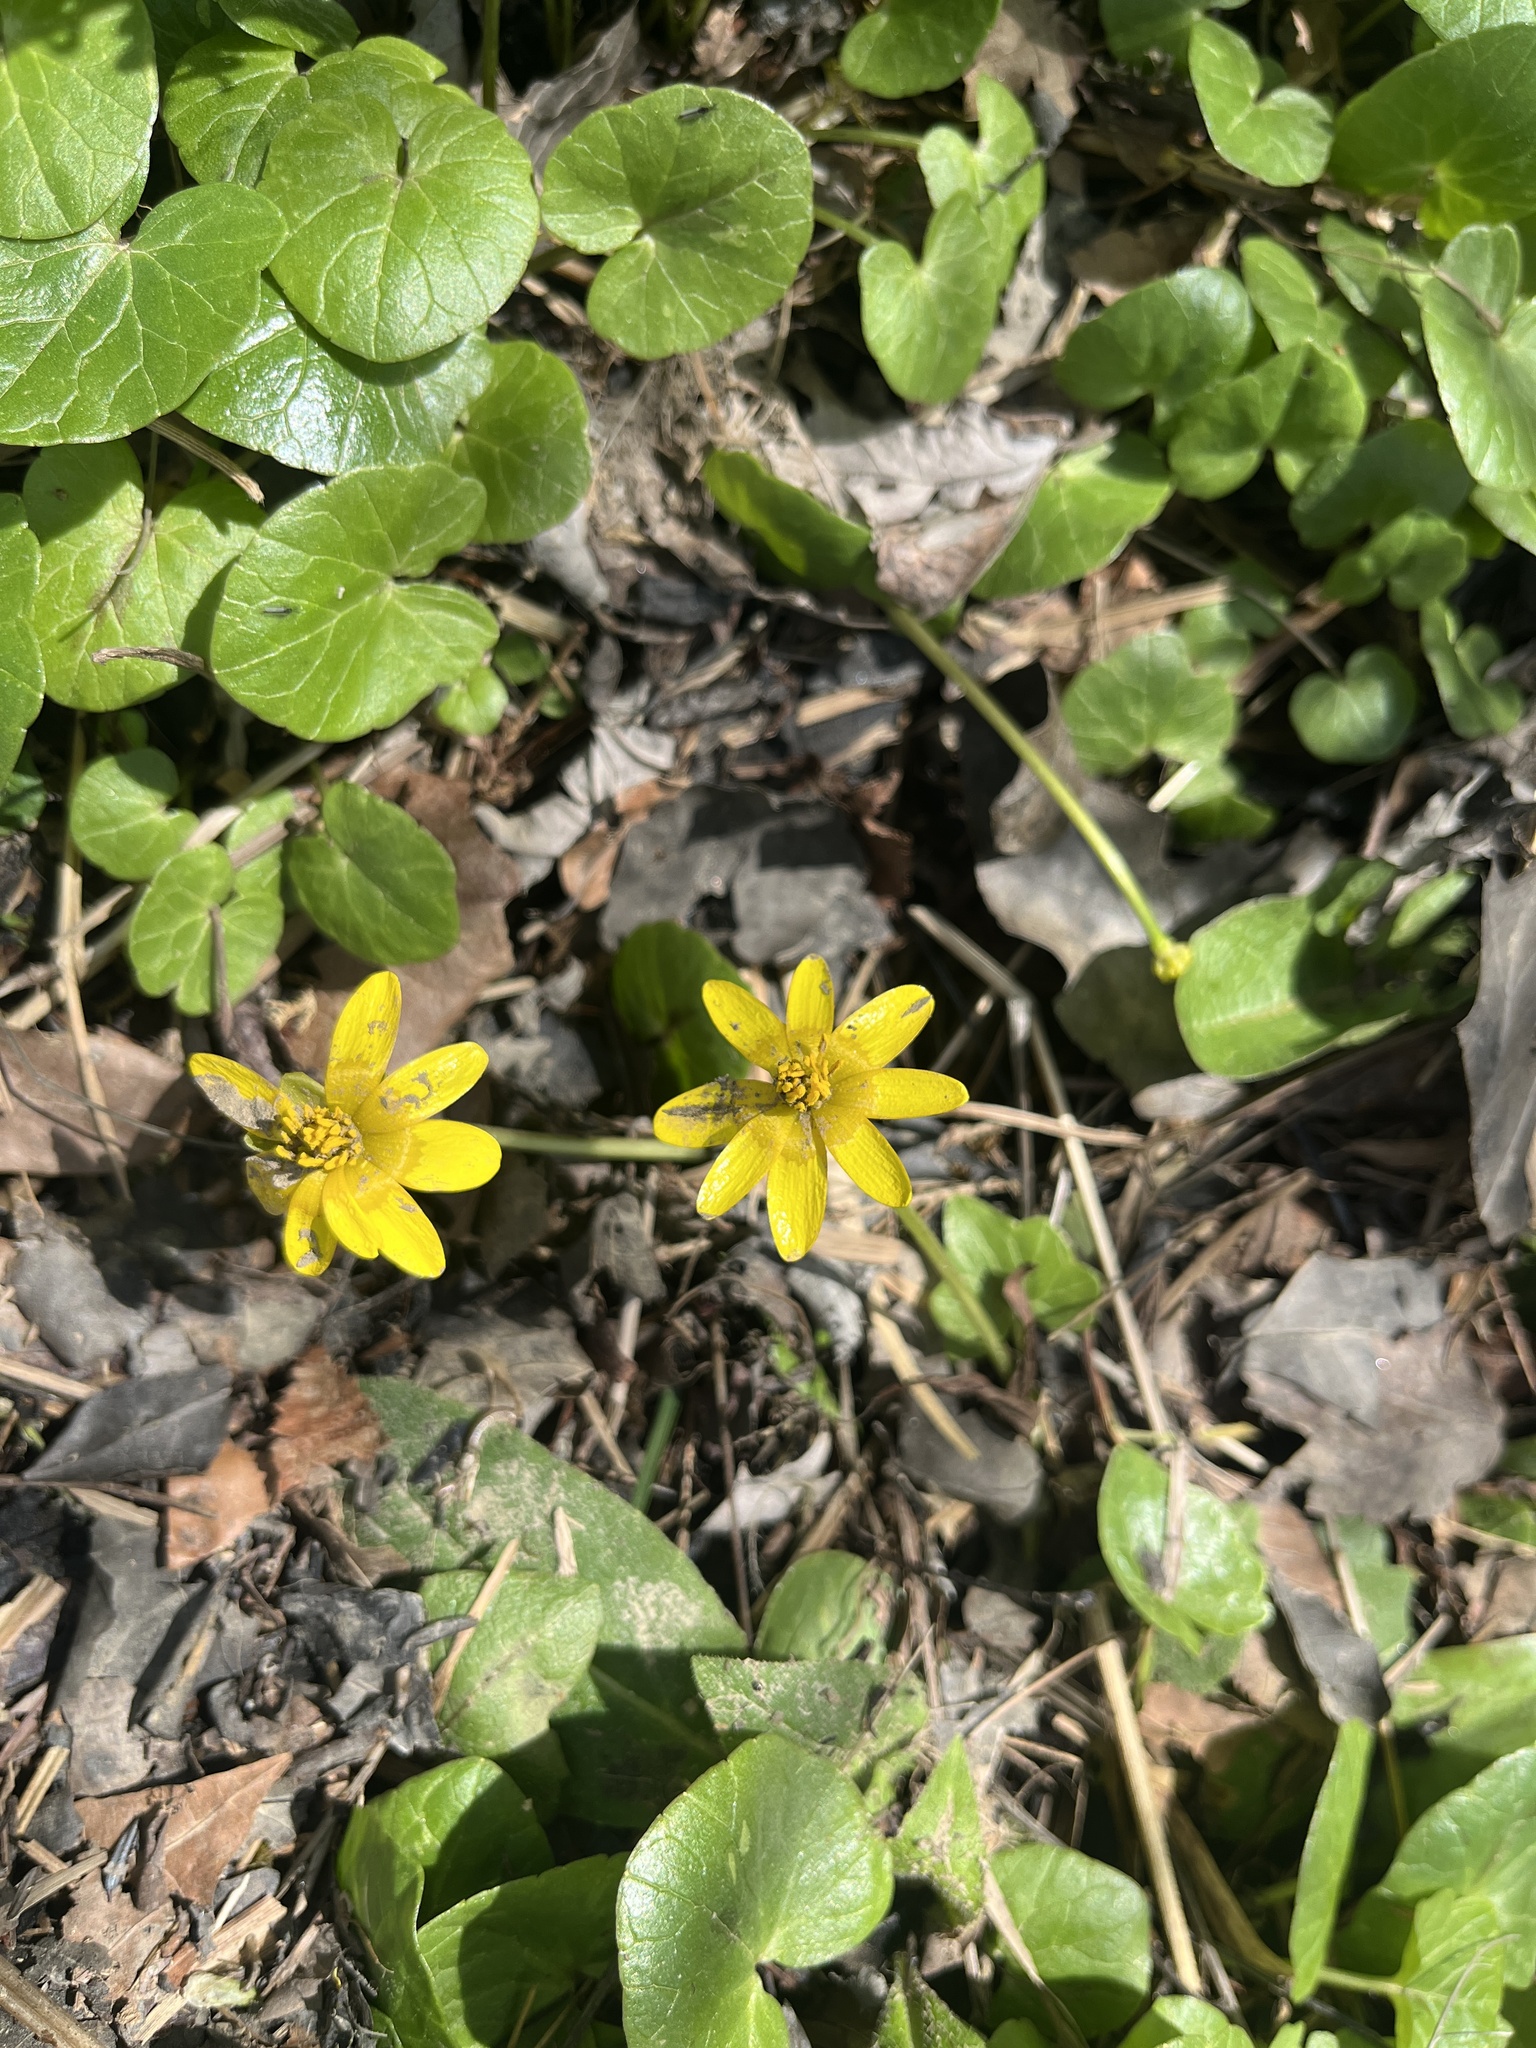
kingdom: Plantae
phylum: Tracheophyta
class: Magnoliopsida
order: Ranunculales
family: Ranunculaceae
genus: Ficaria
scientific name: Ficaria verna
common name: Lesser celandine
